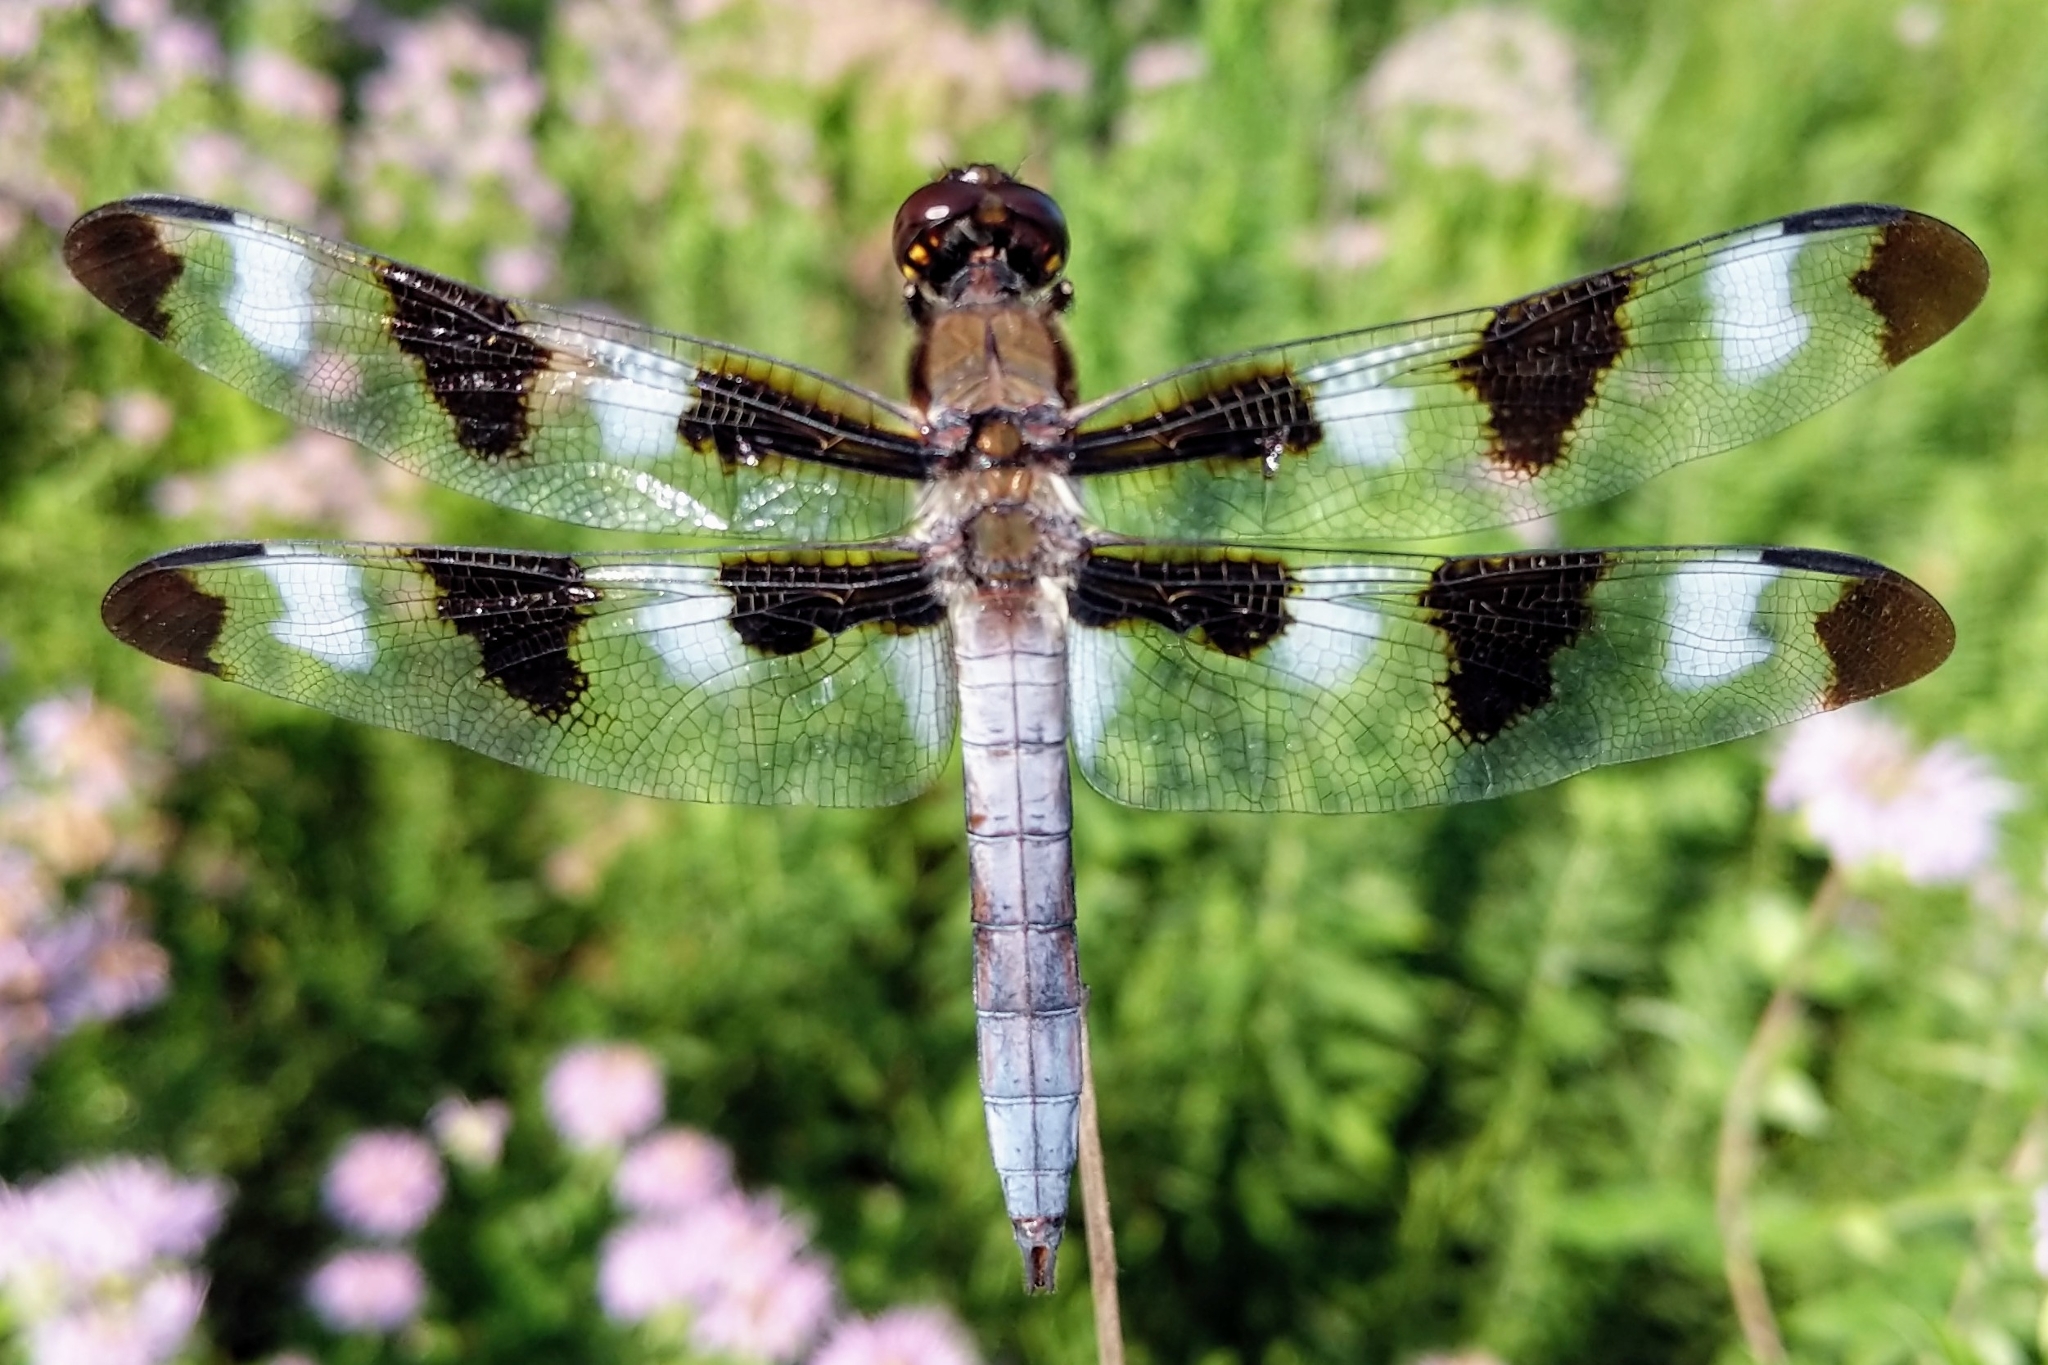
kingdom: Animalia
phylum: Arthropoda
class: Insecta
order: Odonata
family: Libellulidae
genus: Libellula
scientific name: Libellula pulchella
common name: Twelve-spotted skimmer
